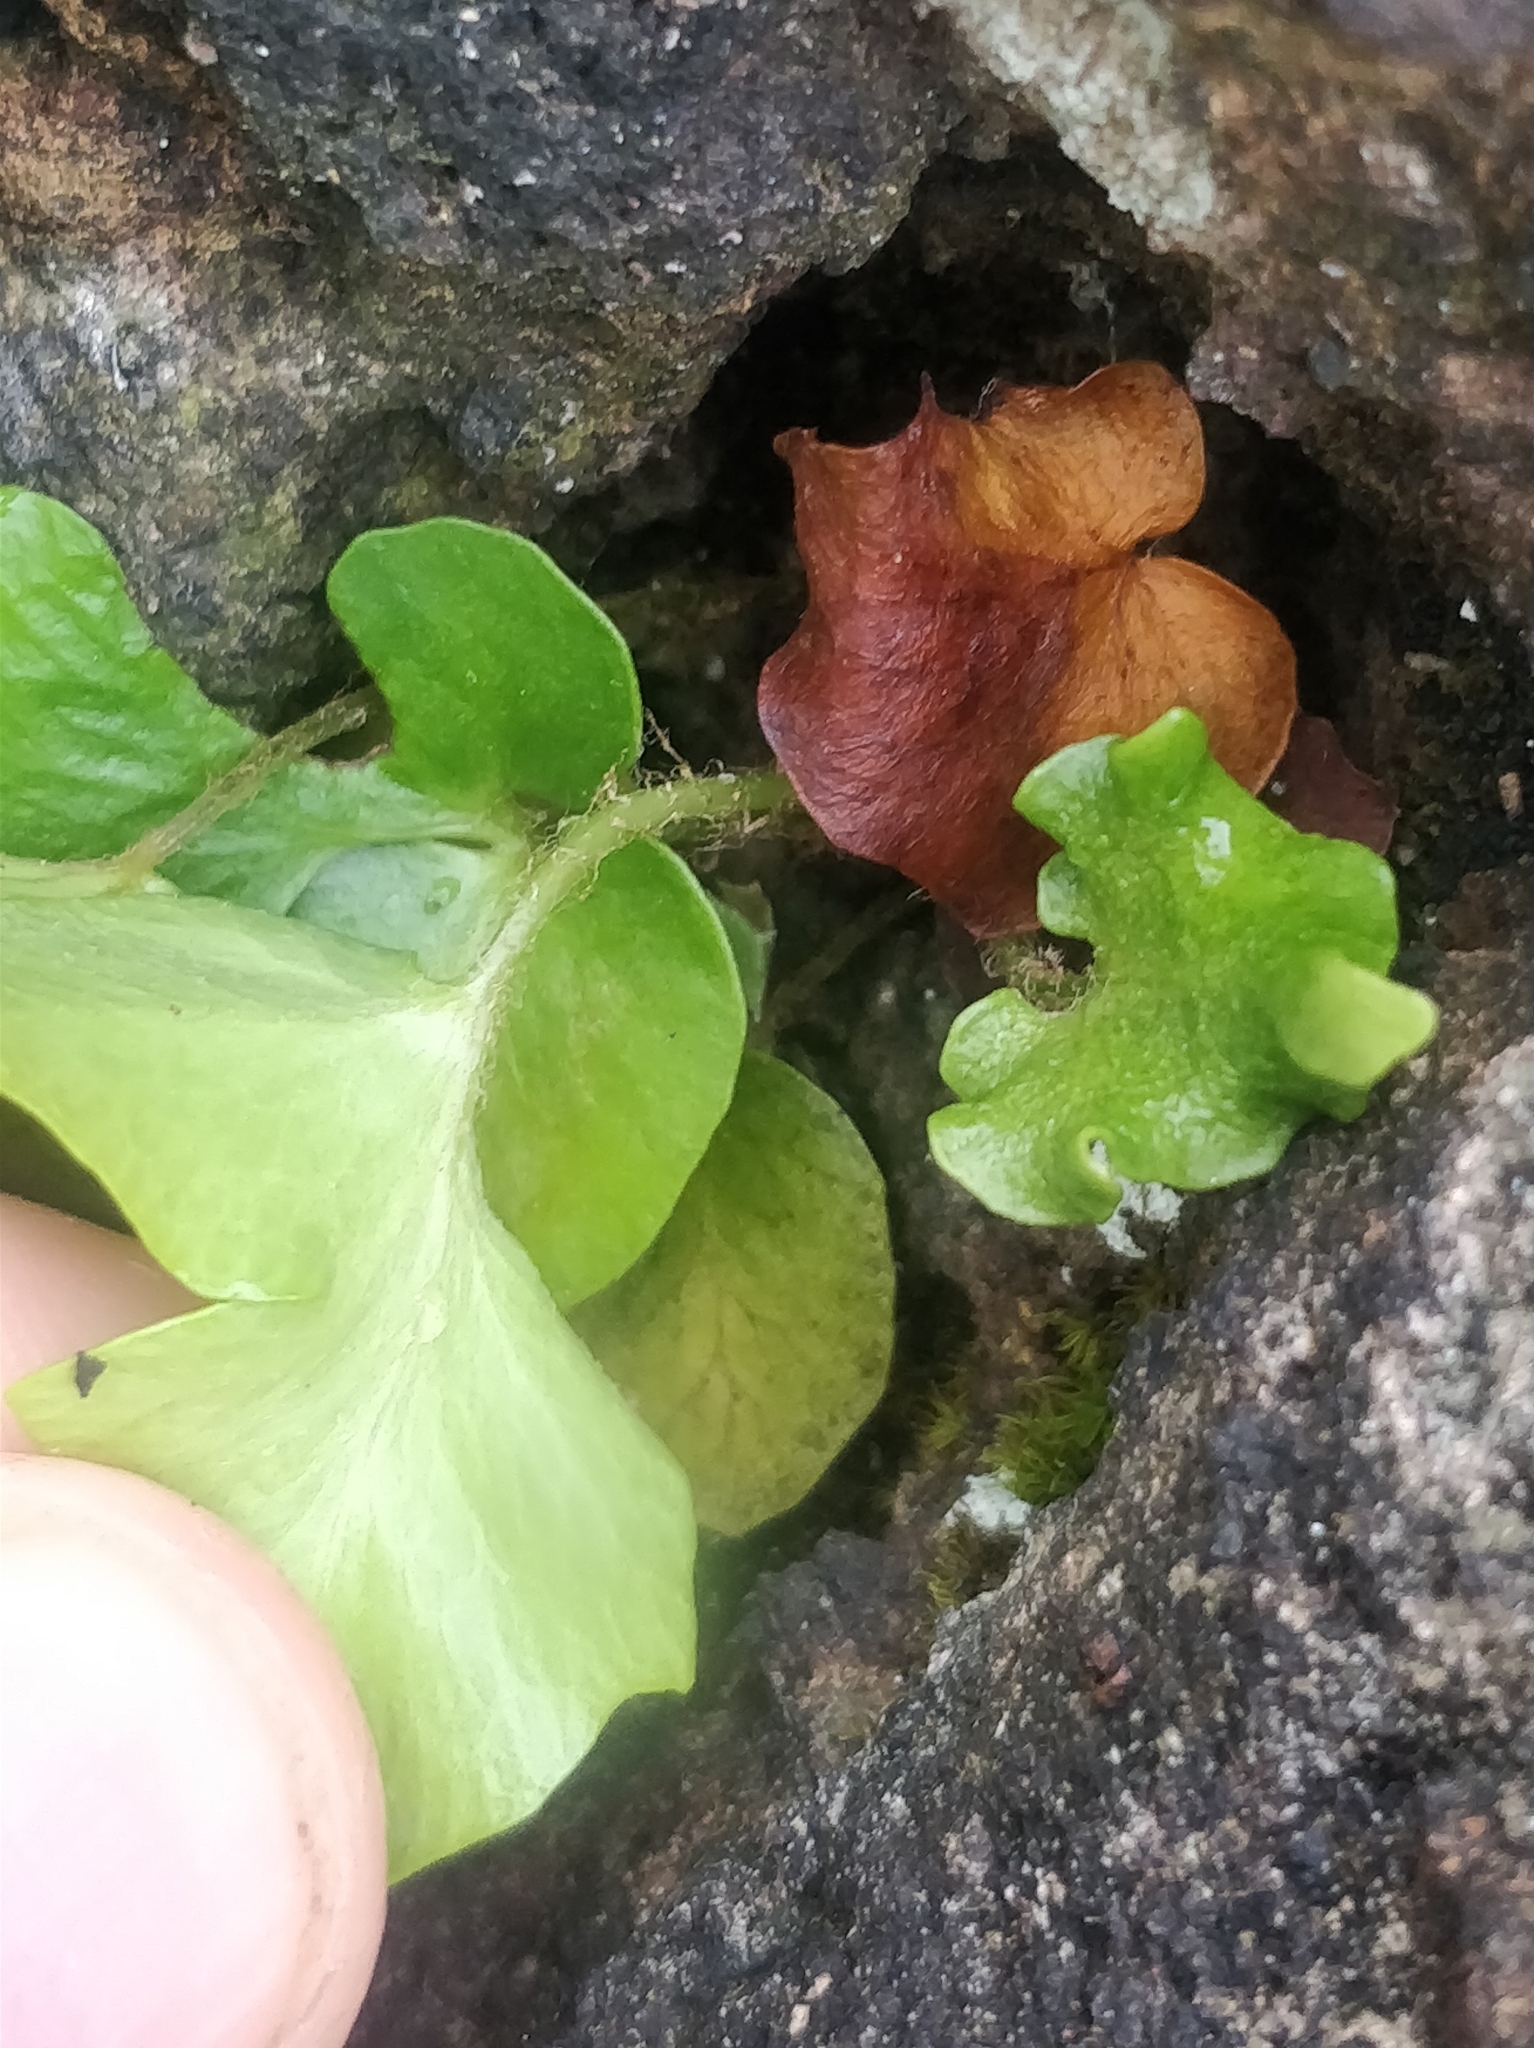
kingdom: Plantae
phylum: Tracheophyta
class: Polypodiopsida
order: Polypodiales
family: Dryopteridaceae
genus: Cyrtomium
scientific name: Cyrtomium falcatum
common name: House holly-fern
